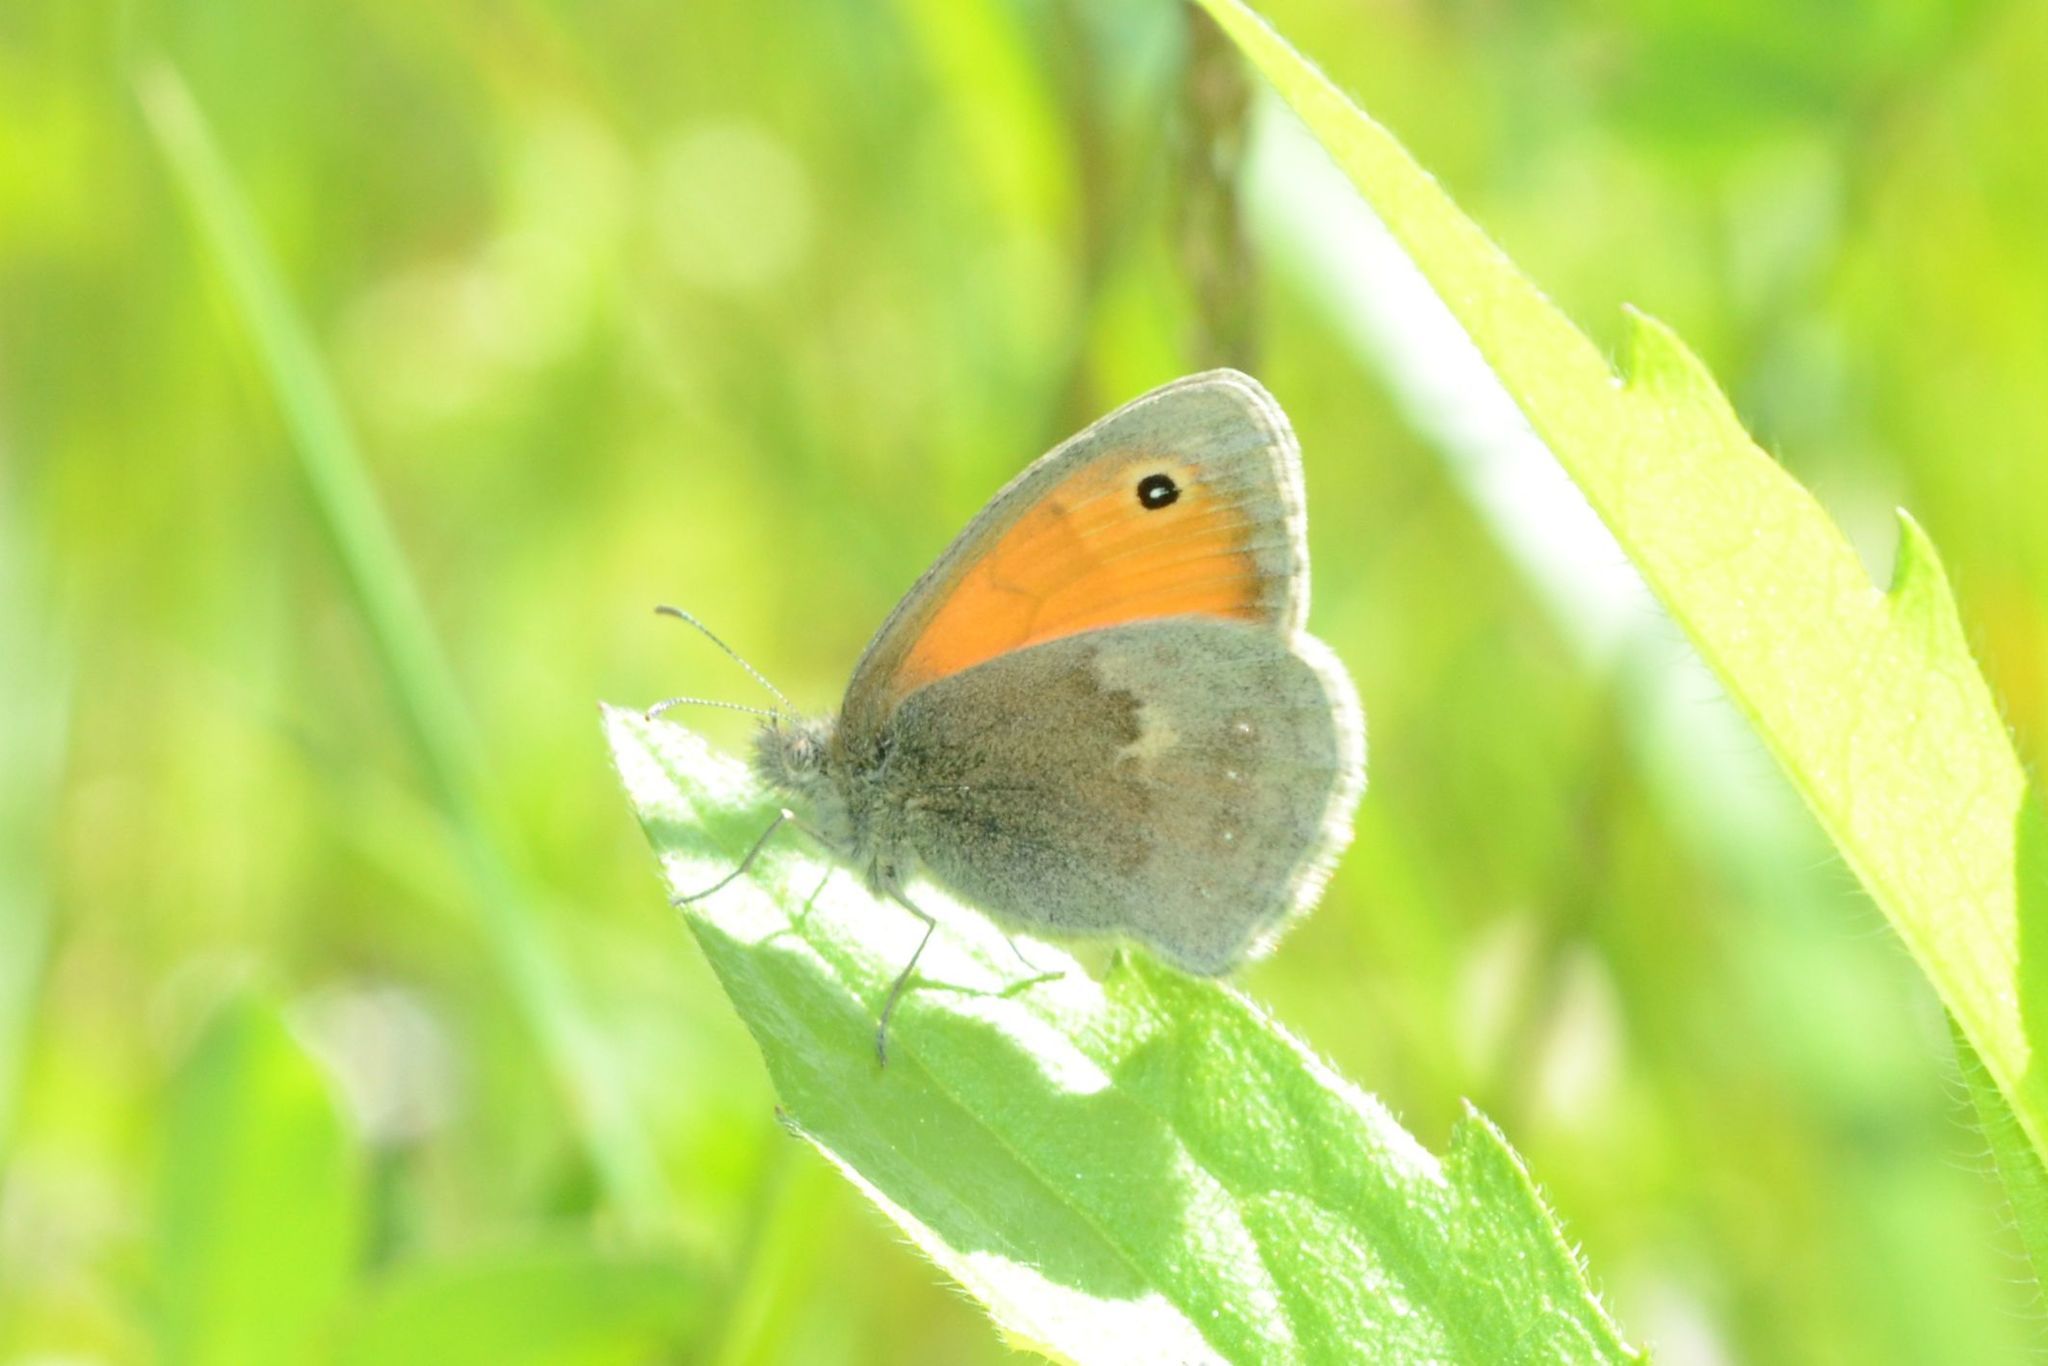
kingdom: Animalia
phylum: Arthropoda
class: Insecta
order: Lepidoptera
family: Nymphalidae
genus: Coenonympha
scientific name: Coenonympha pamphilus
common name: Small heath
